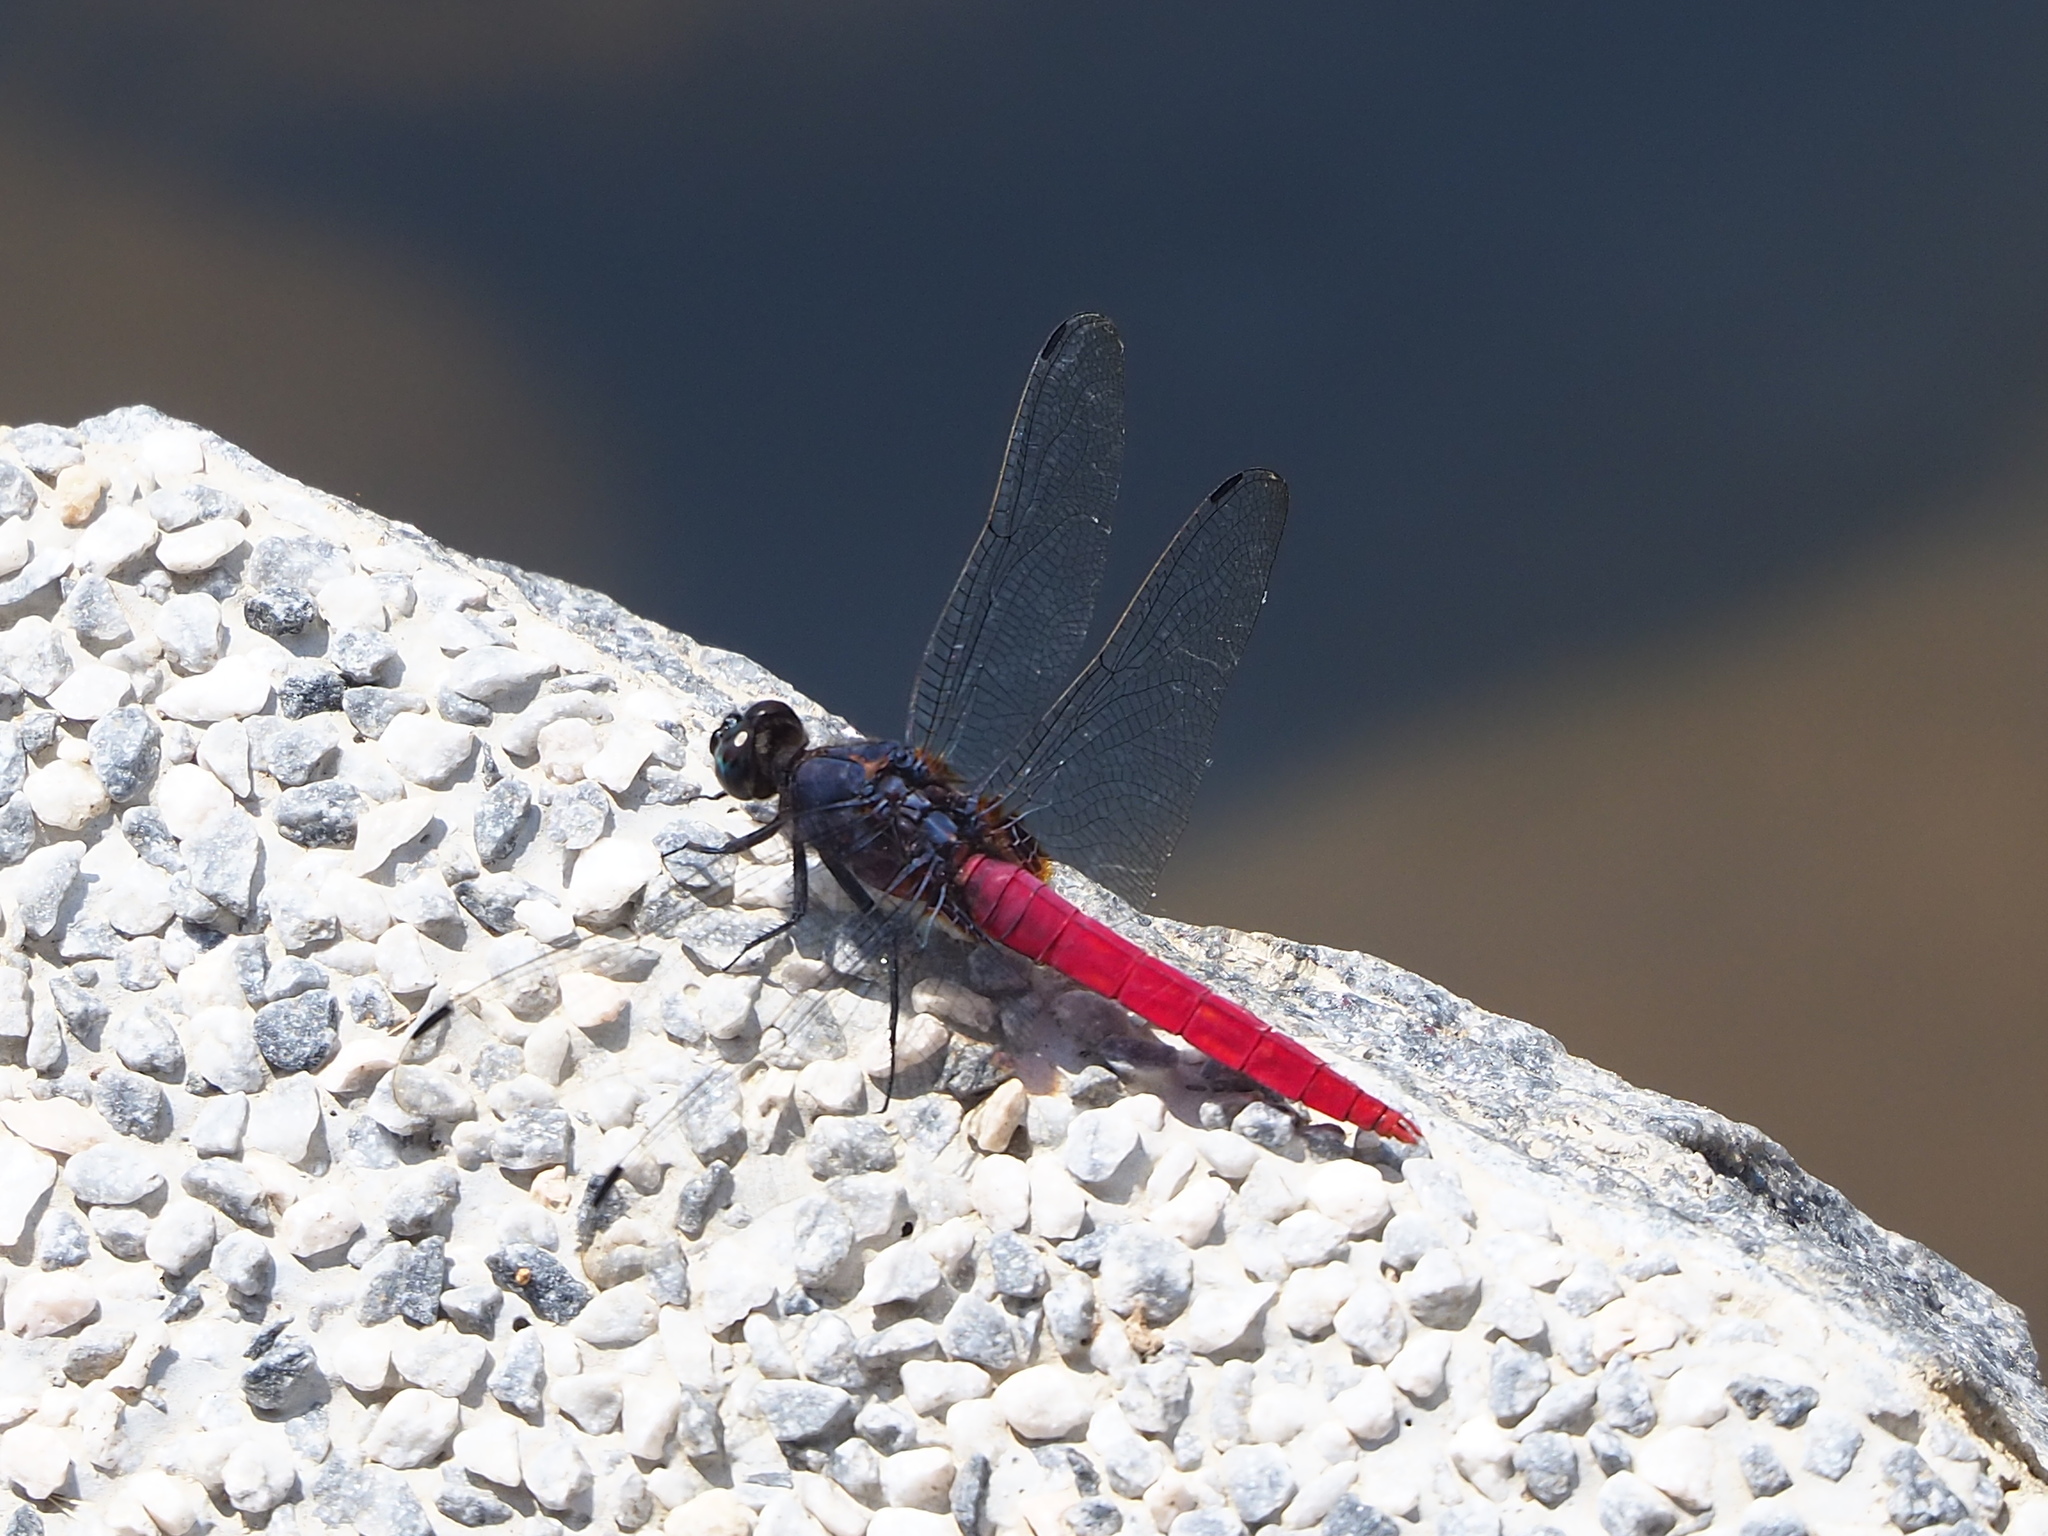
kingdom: Animalia
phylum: Arthropoda
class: Insecta
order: Odonata
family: Libellulidae
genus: Orthetrum
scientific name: Orthetrum pruinosum
